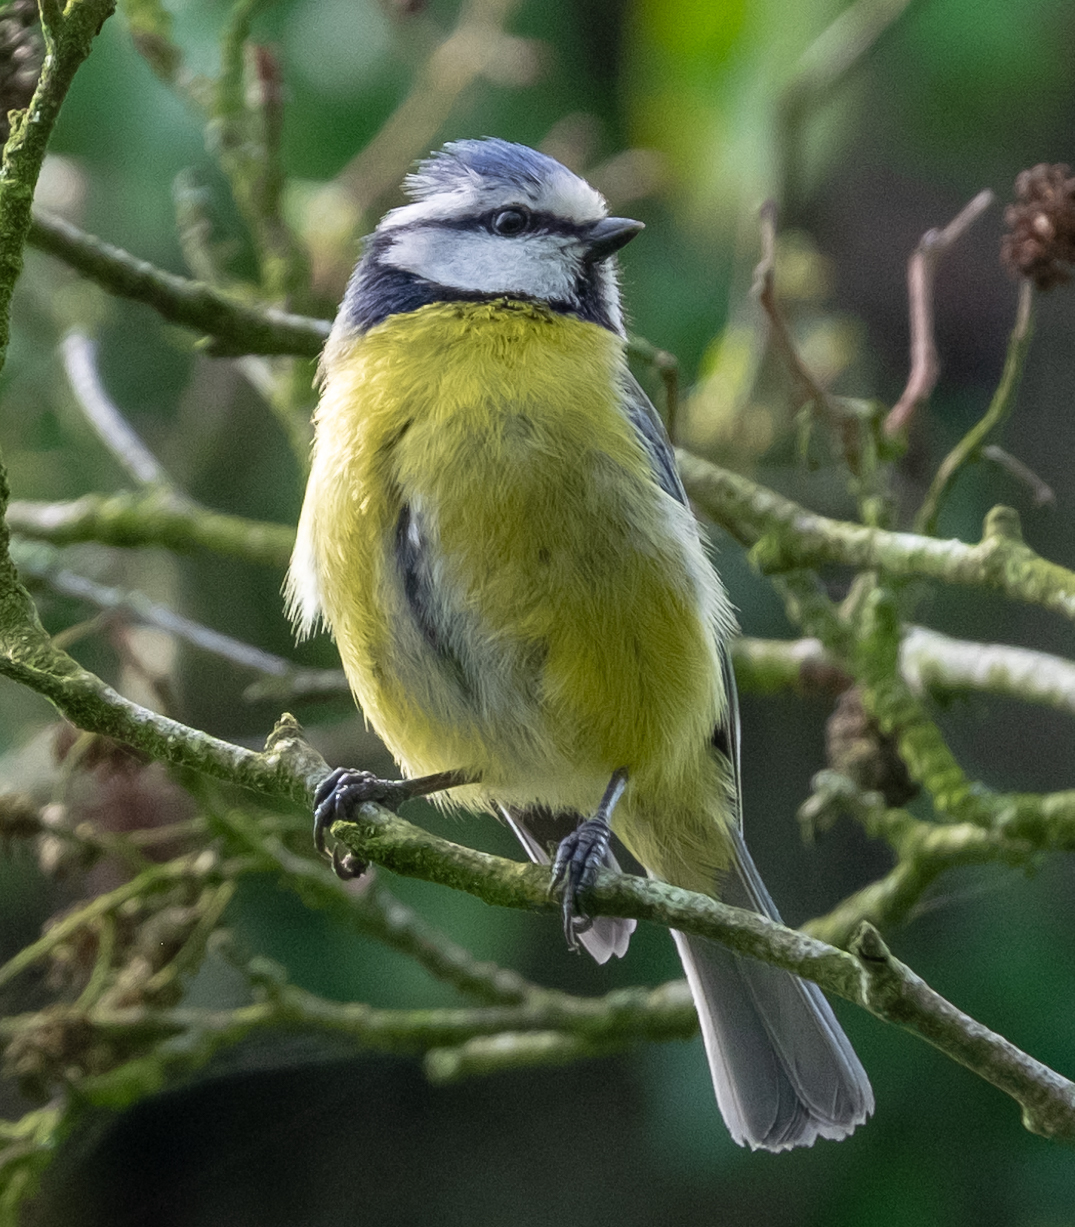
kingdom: Animalia
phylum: Chordata
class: Aves
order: Passeriformes
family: Paridae
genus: Cyanistes
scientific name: Cyanistes caeruleus
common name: Eurasian blue tit
